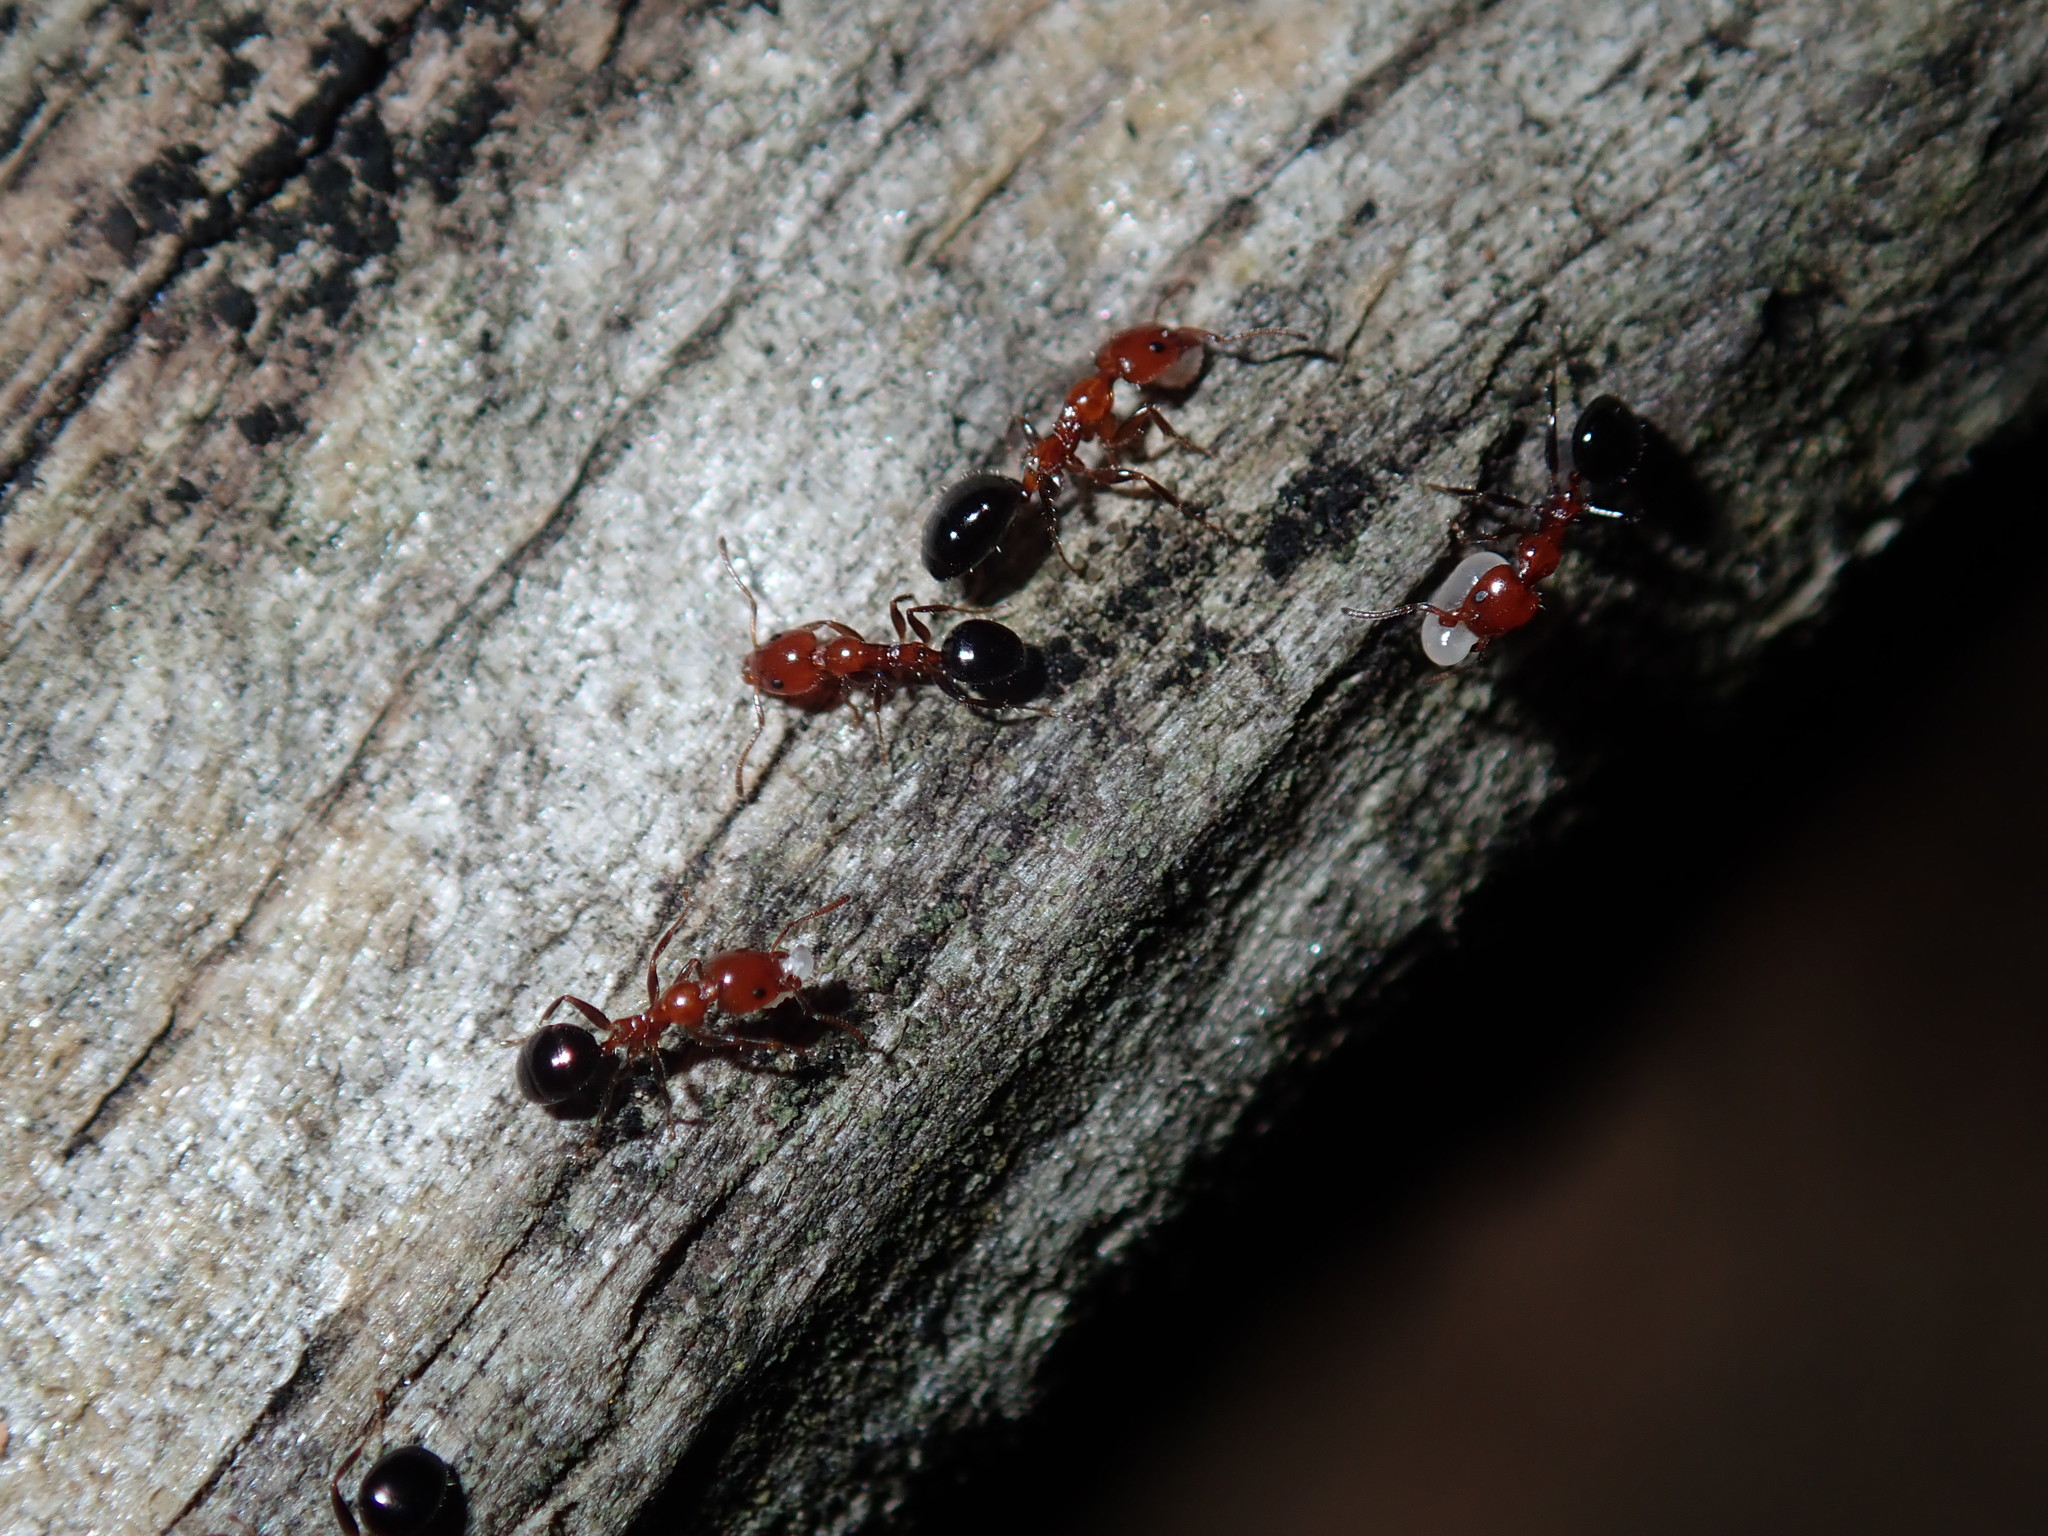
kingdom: Animalia
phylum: Arthropoda
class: Insecta
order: Hymenoptera
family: Formicidae
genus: Froggattella
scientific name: Froggattella kirbii
